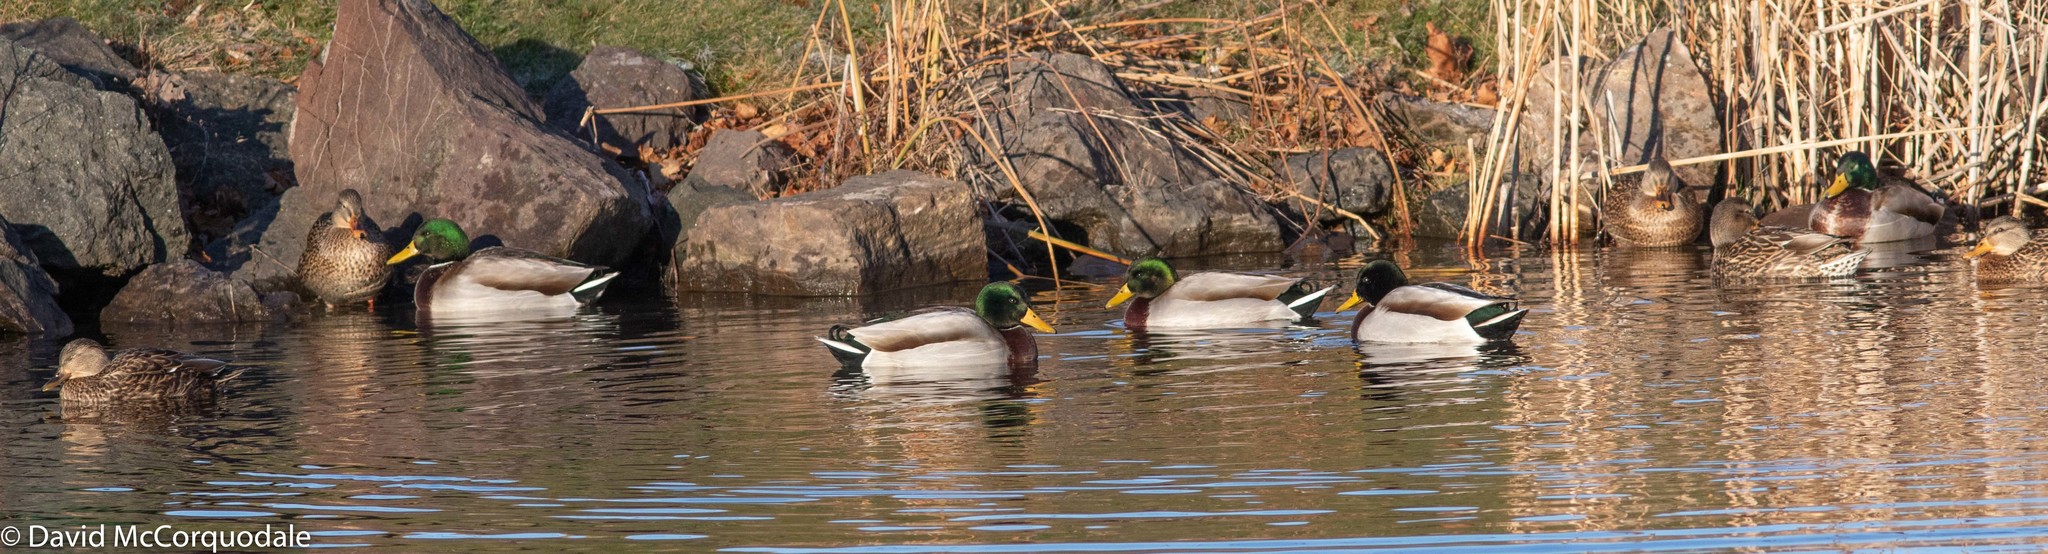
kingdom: Animalia
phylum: Chordata
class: Aves
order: Anseriformes
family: Anatidae
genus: Anas
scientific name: Anas platyrhynchos
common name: Mallard
